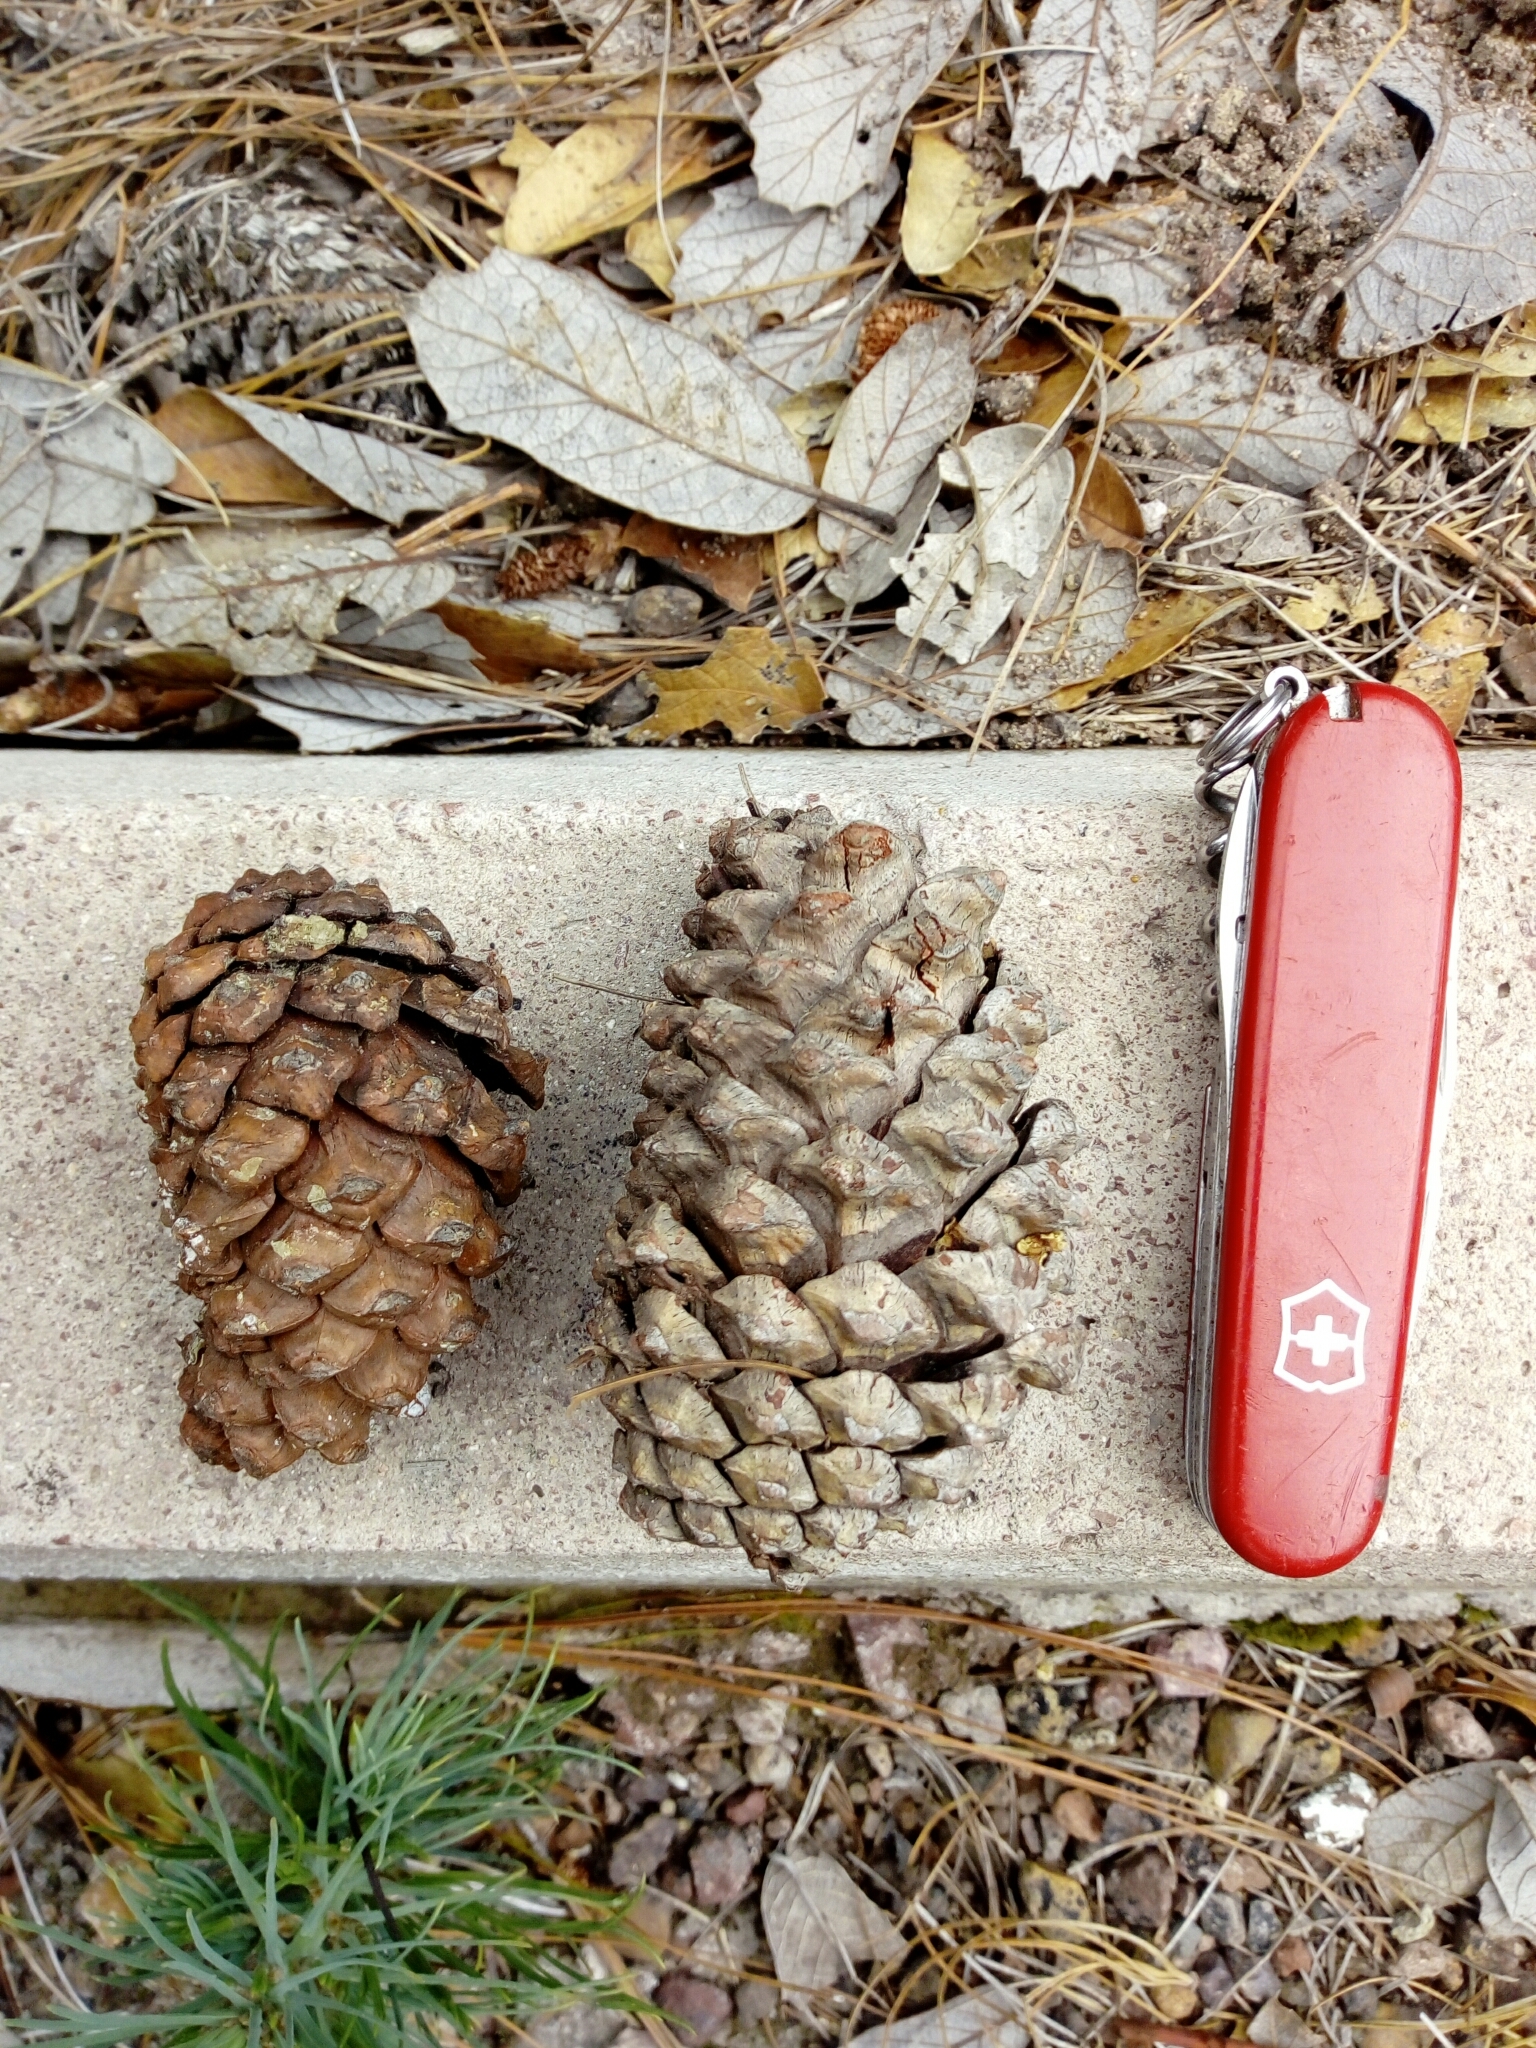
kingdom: Plantae
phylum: Tracheophyta
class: Pinopsida
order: Pinales
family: Pinaceae
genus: Pinus
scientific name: Pinus durangensis
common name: Durango pine
